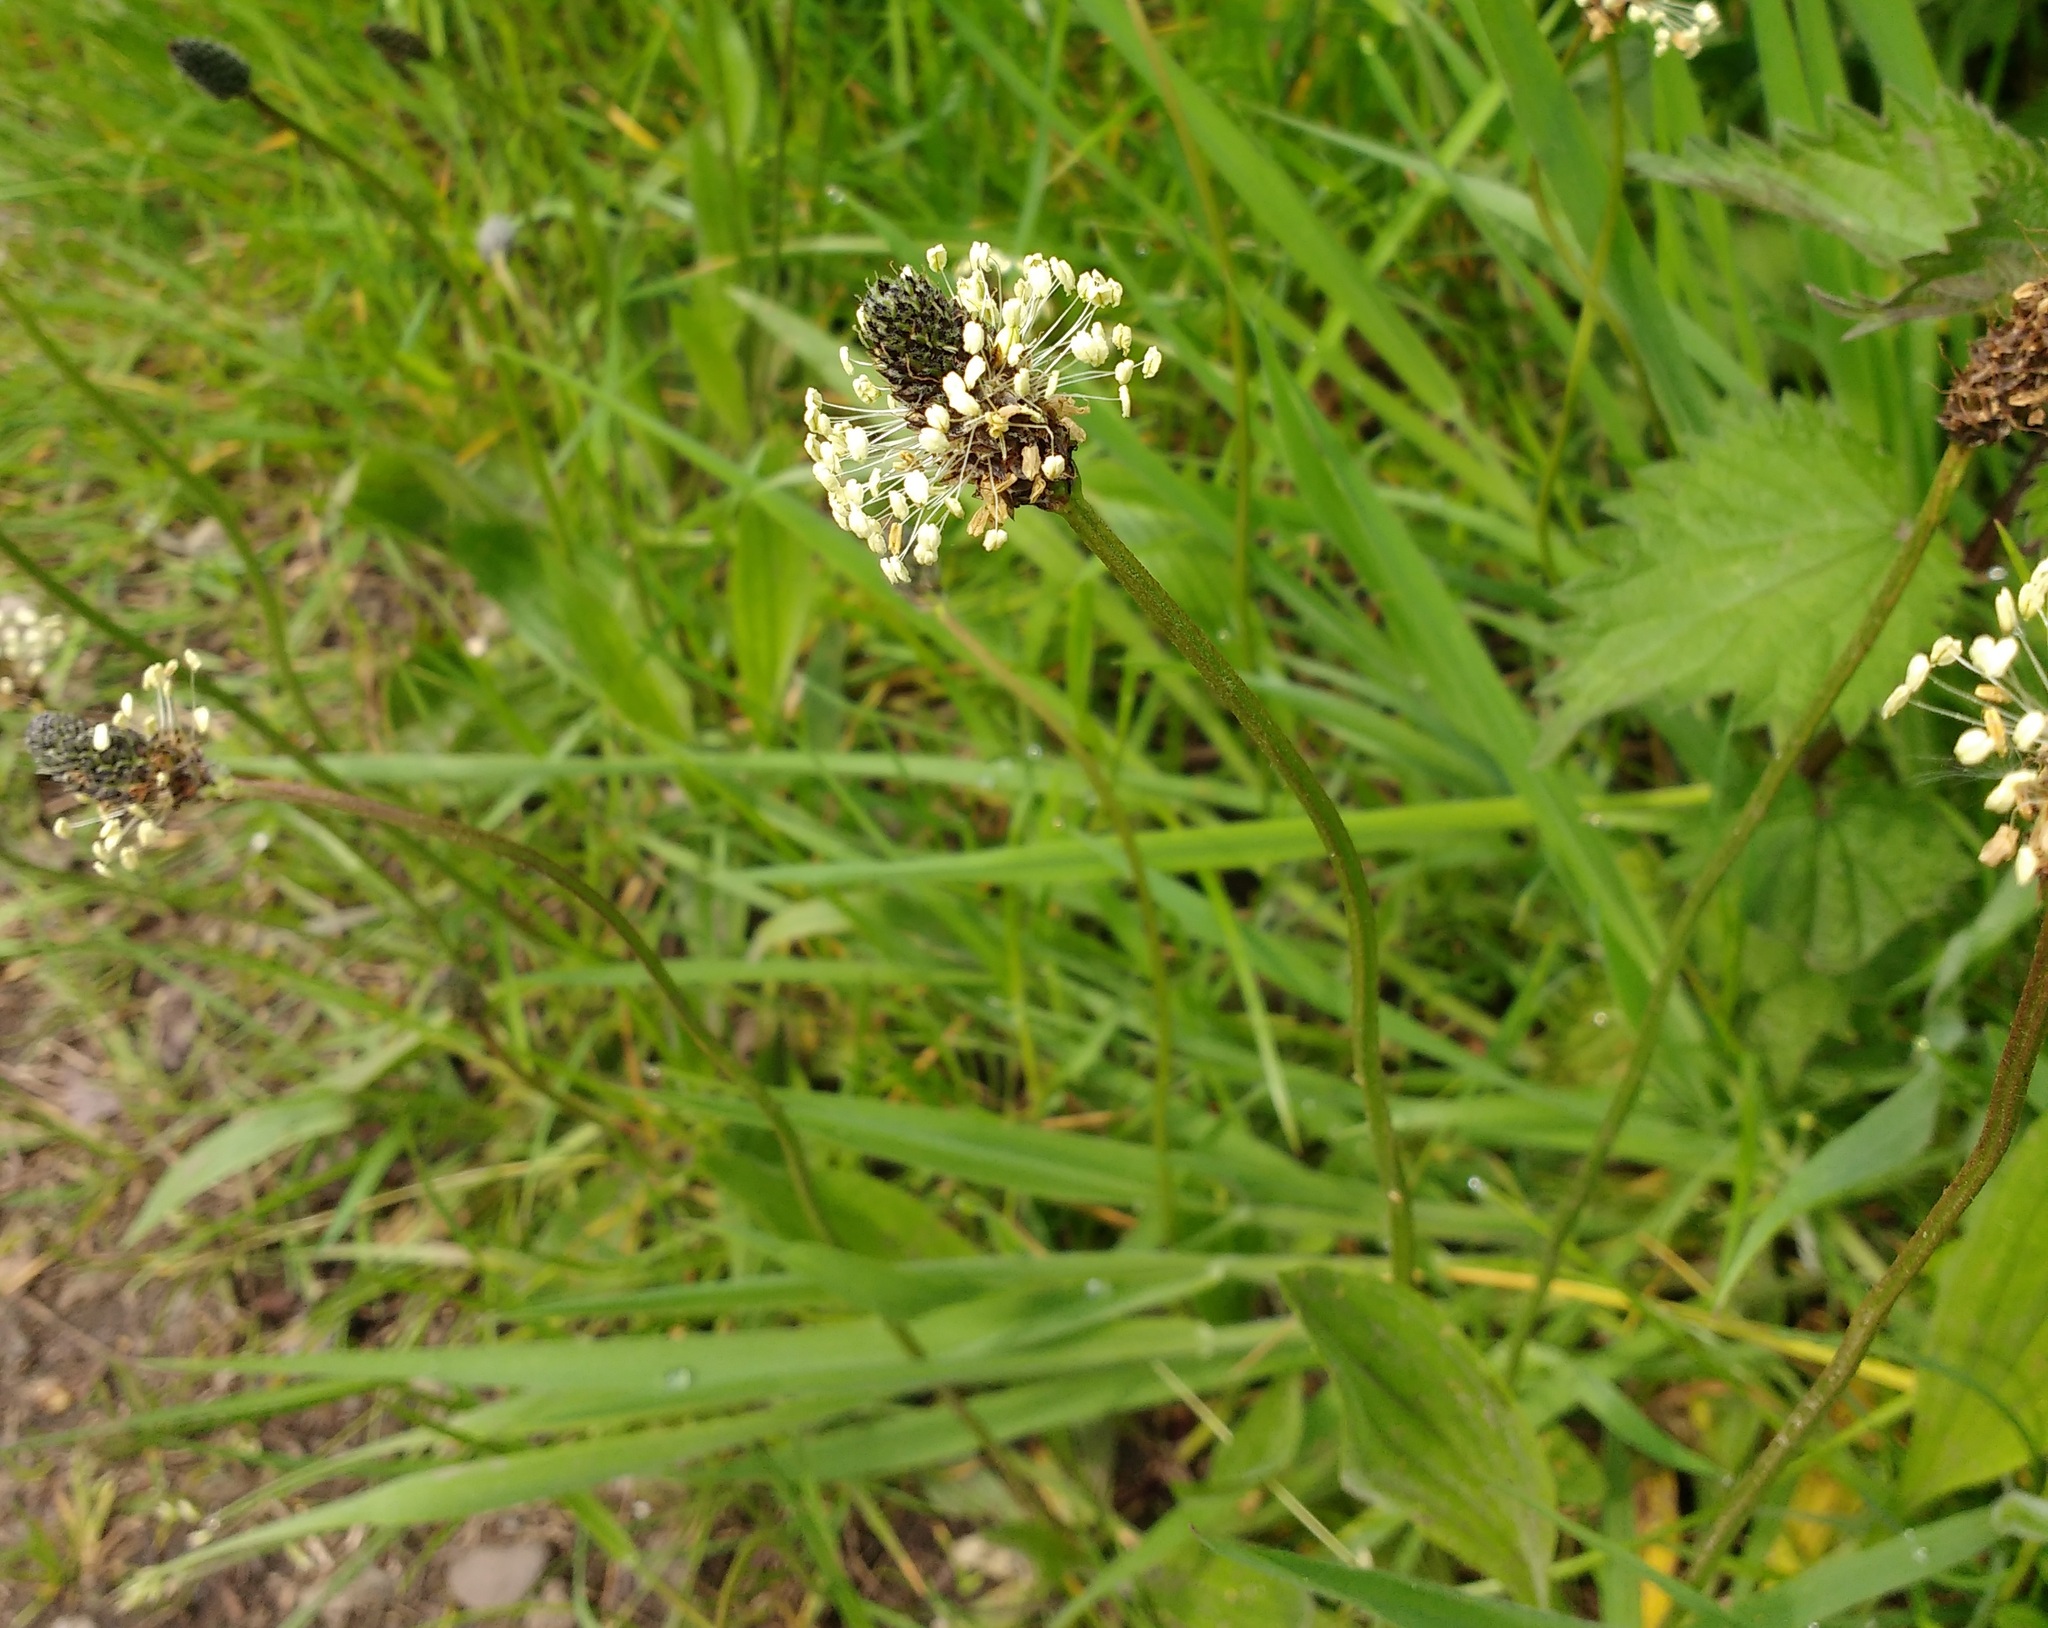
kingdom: Plantae
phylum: Tracheophyta
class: Magnoliopsida
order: Lamiales
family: Plantaginaceae
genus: Plantago
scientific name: Plantago lanceolata
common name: Ribwort plantain
